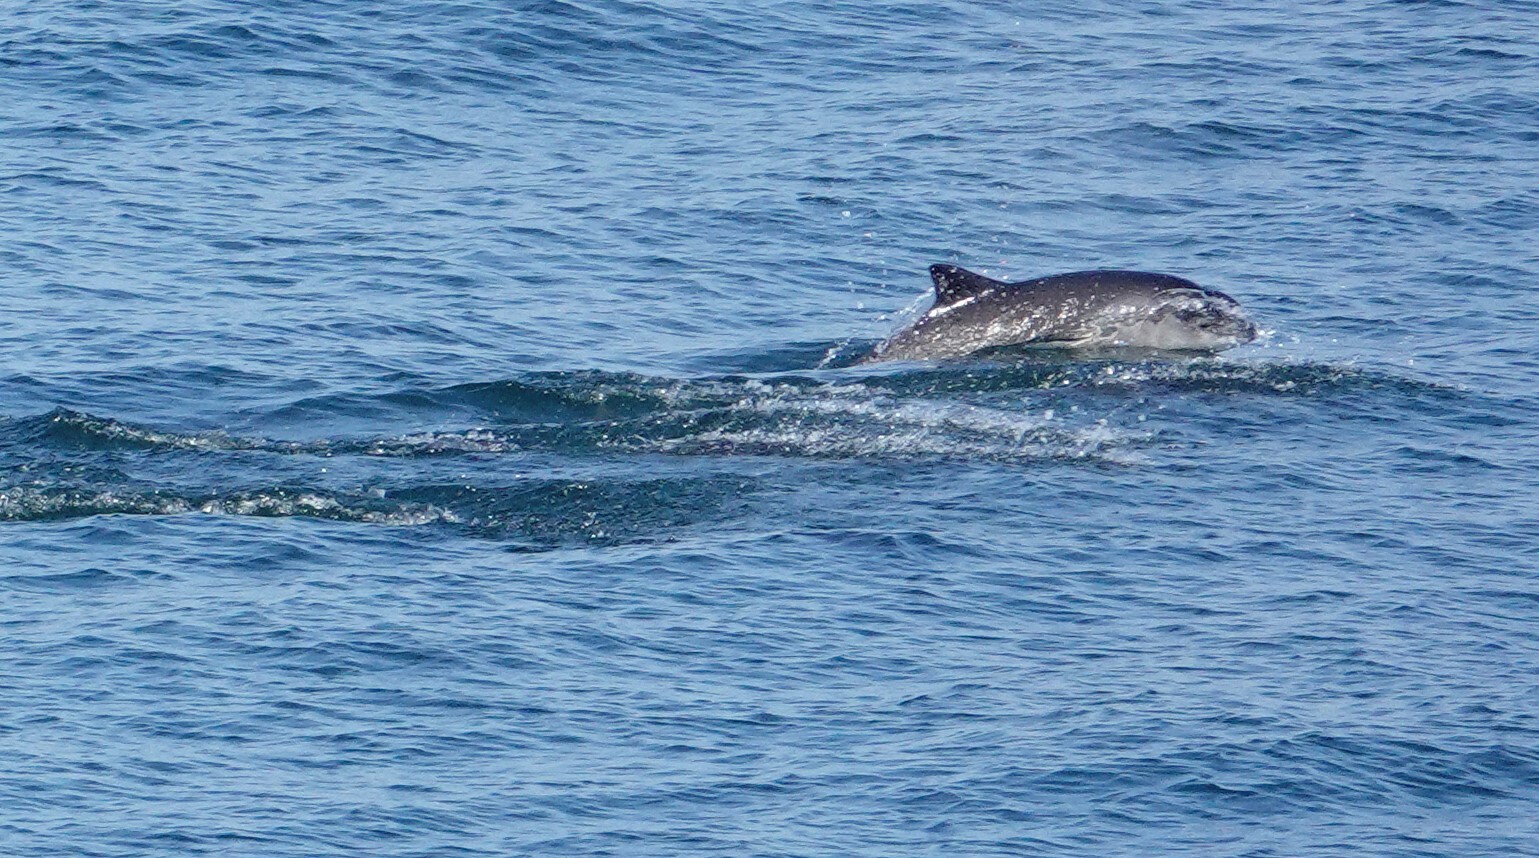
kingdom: Animalia
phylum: Chordata
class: Mammalia
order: Cetacea
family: Phocoenidae
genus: Phocoena
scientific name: Phocoena phocoena
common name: Harbor porpoise
